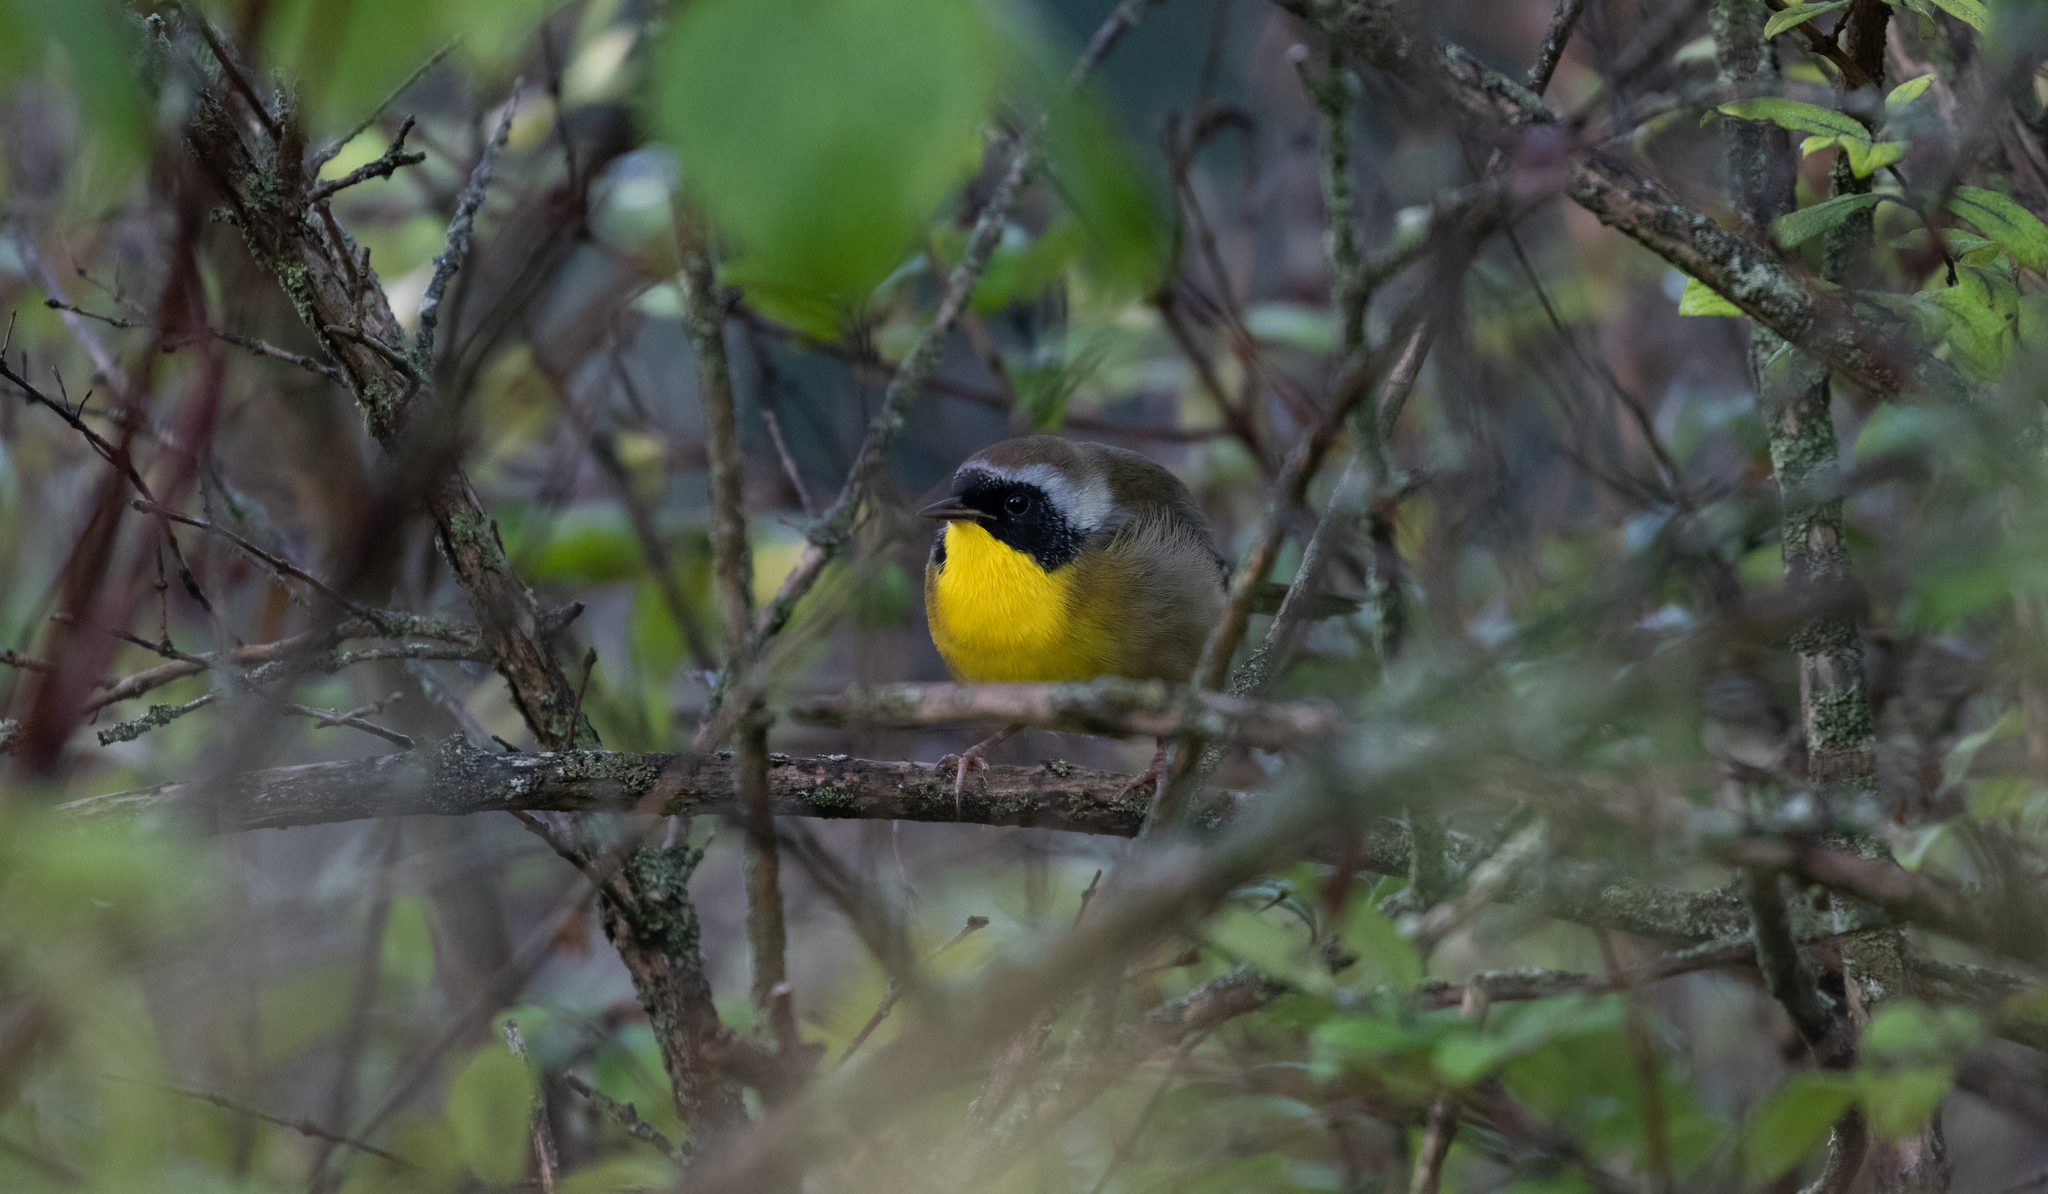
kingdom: Animalia
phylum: Chordata
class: Aves
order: Passeriformes
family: Parulidae
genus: Geothlypis
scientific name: Geothlypis trichas
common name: Common yellowthroat
